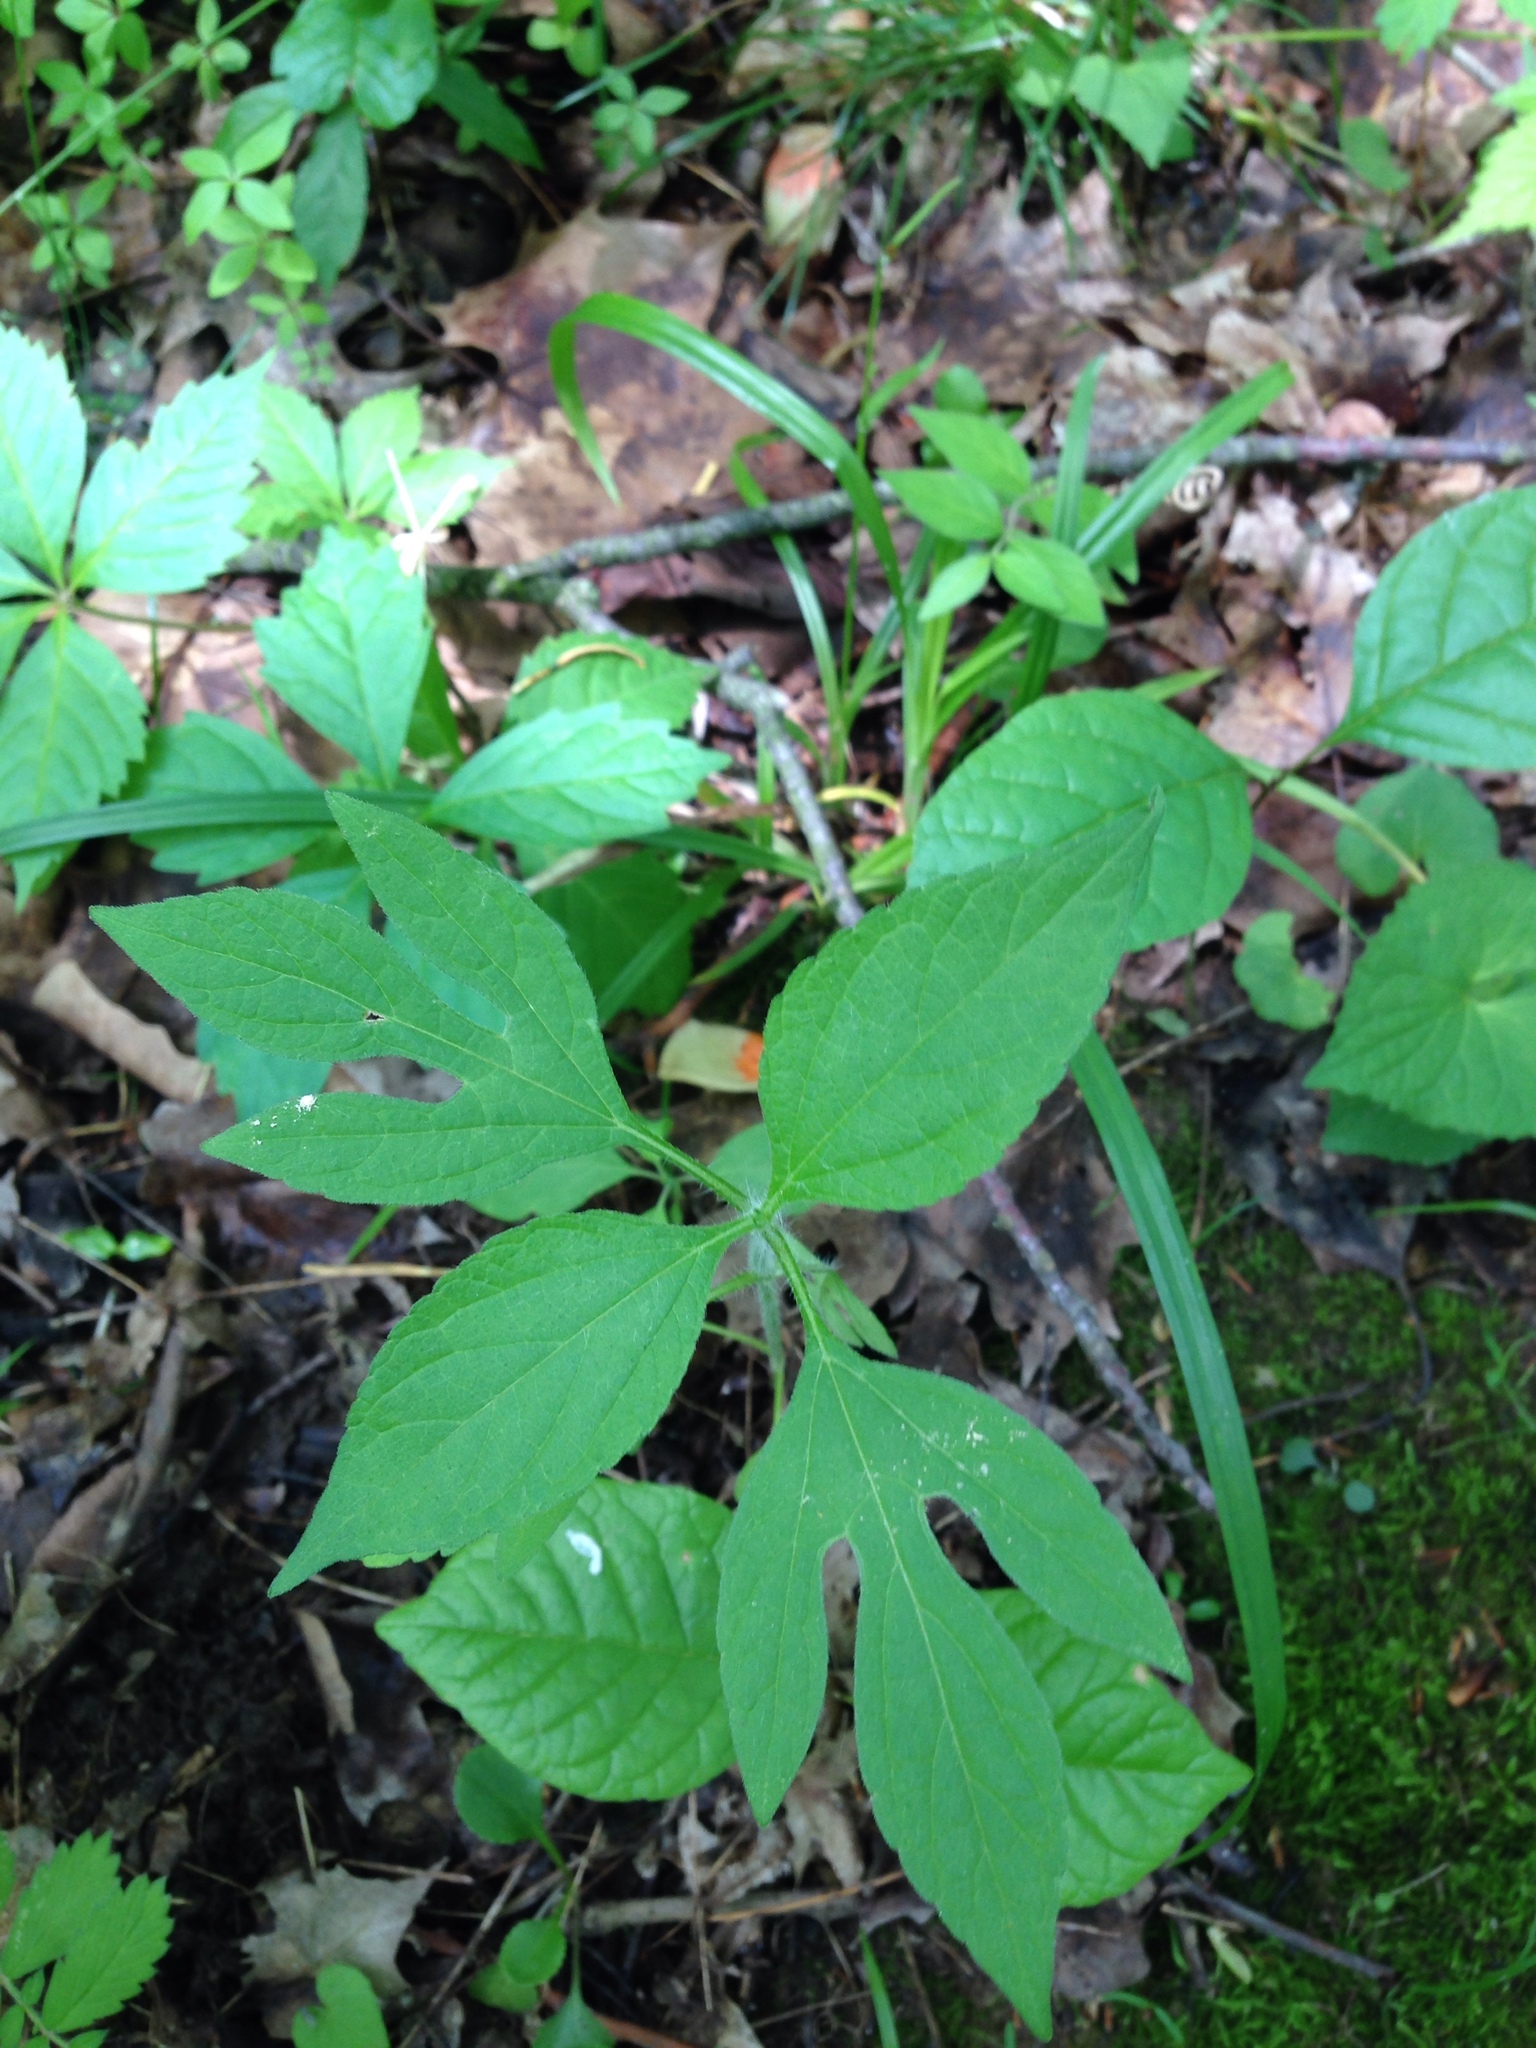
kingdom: Plantae
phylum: Tracheophyta
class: Magnoliopsida
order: Asterales
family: Asteraceae
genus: Ambrosia
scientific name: Ambrosia trifida
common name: Giant ragweed
